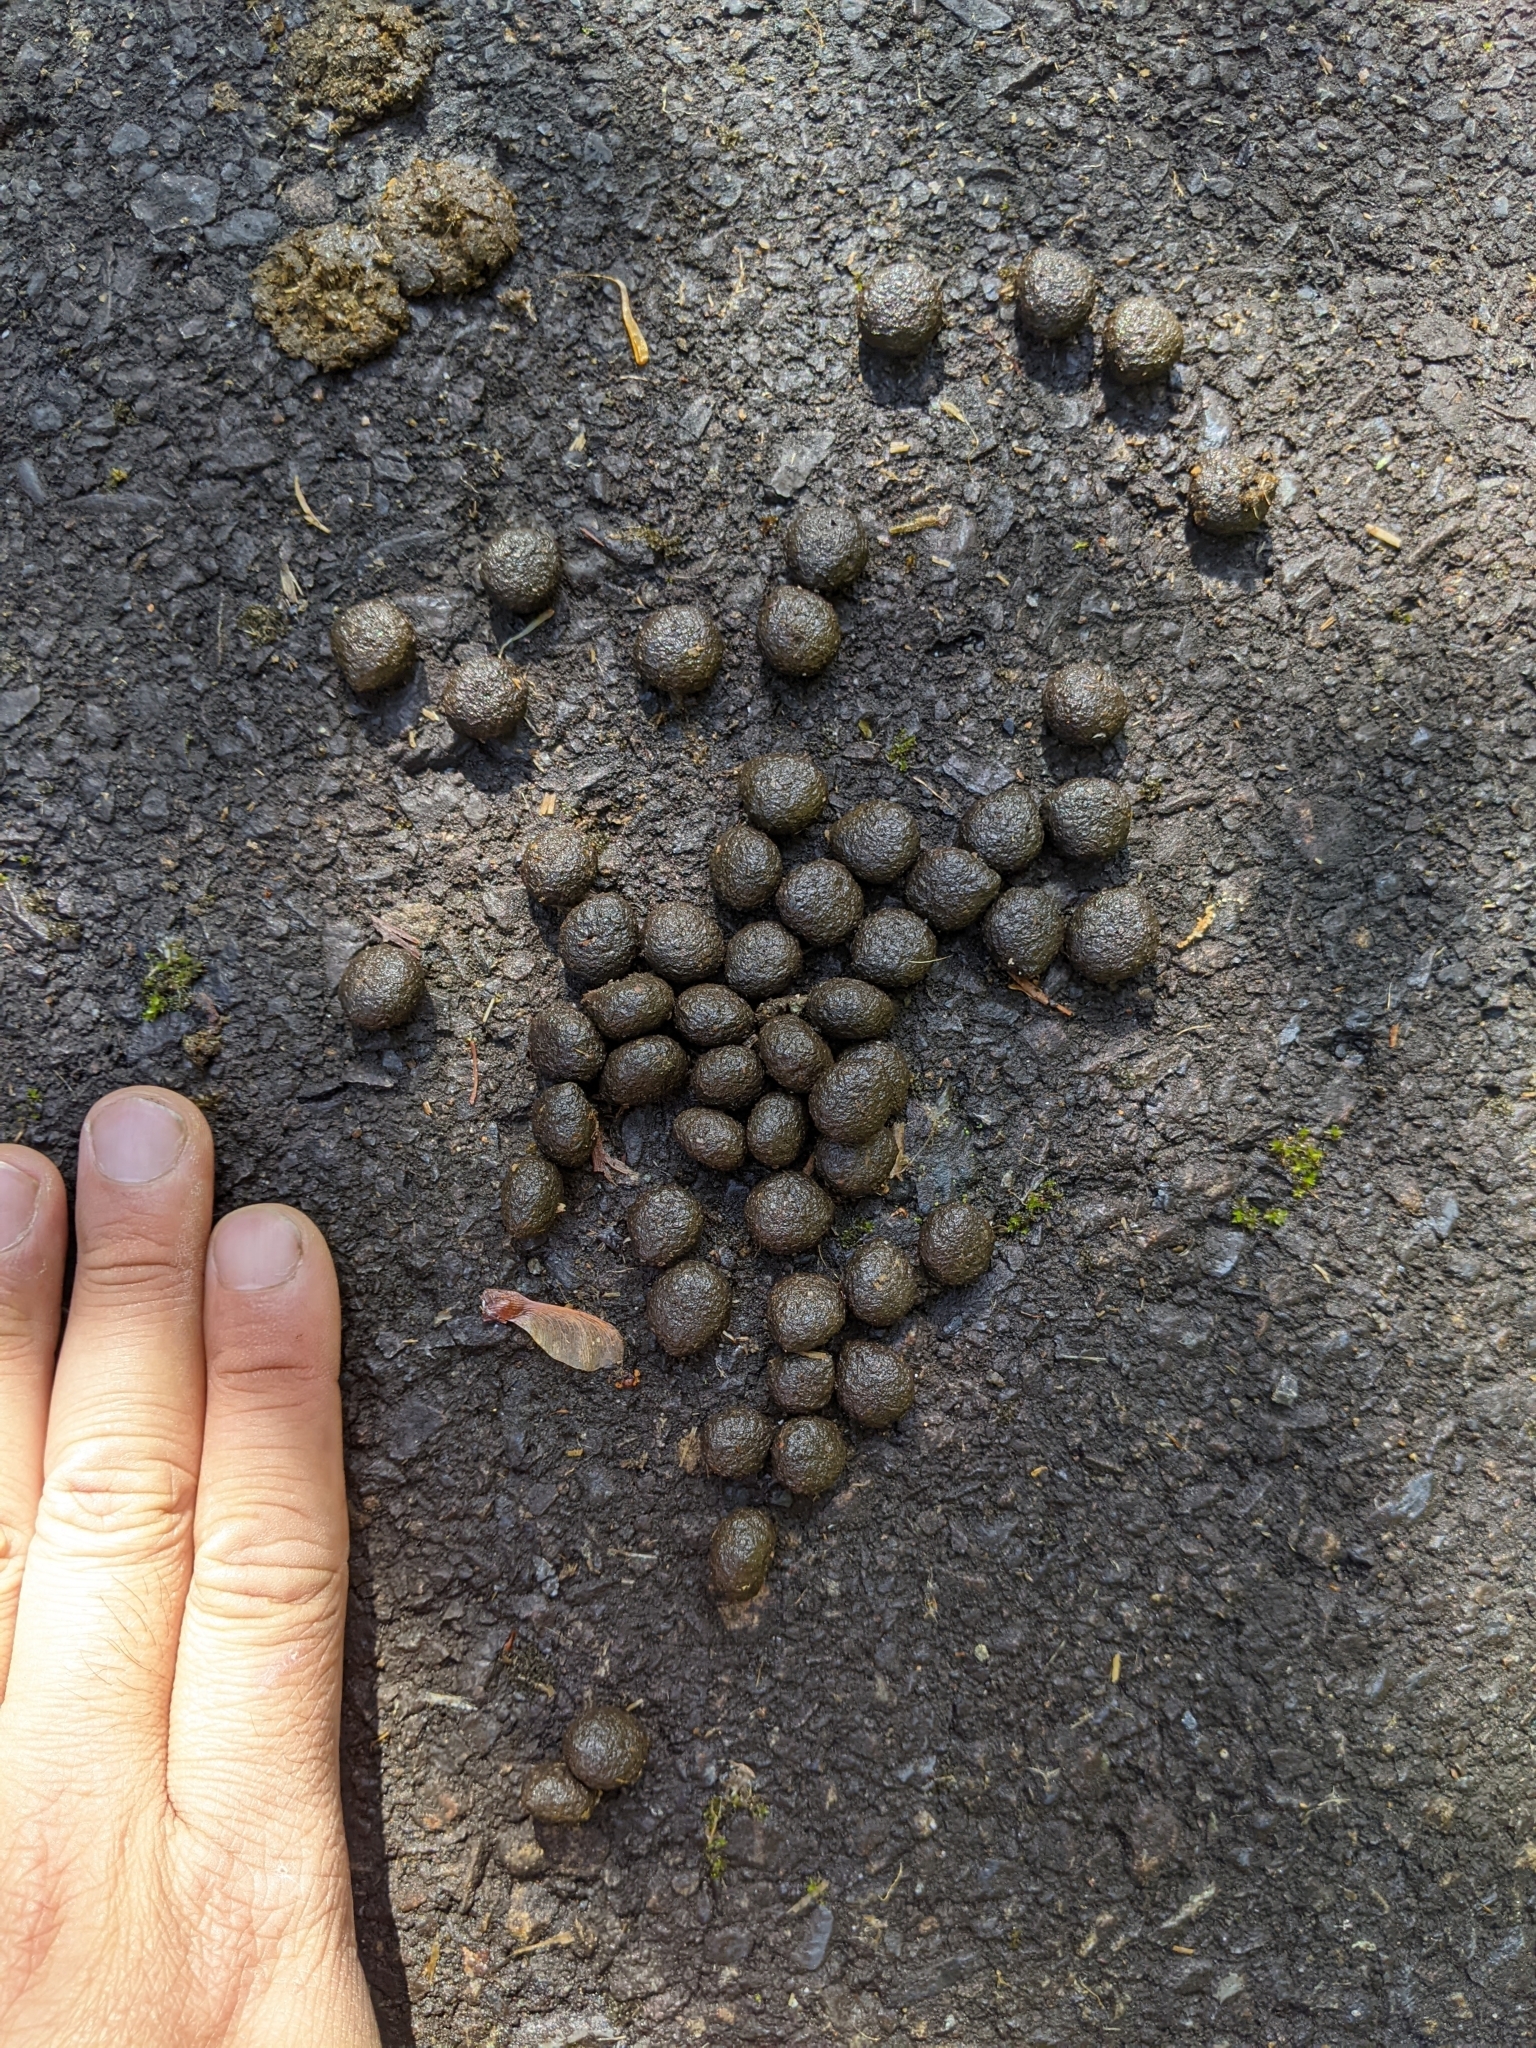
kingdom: Animalia
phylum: Chordata
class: Mammalia
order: Lagomorpha
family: Leporidae
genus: Pentalagus
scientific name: Pentalagus furnessi
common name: Amami rabbit
